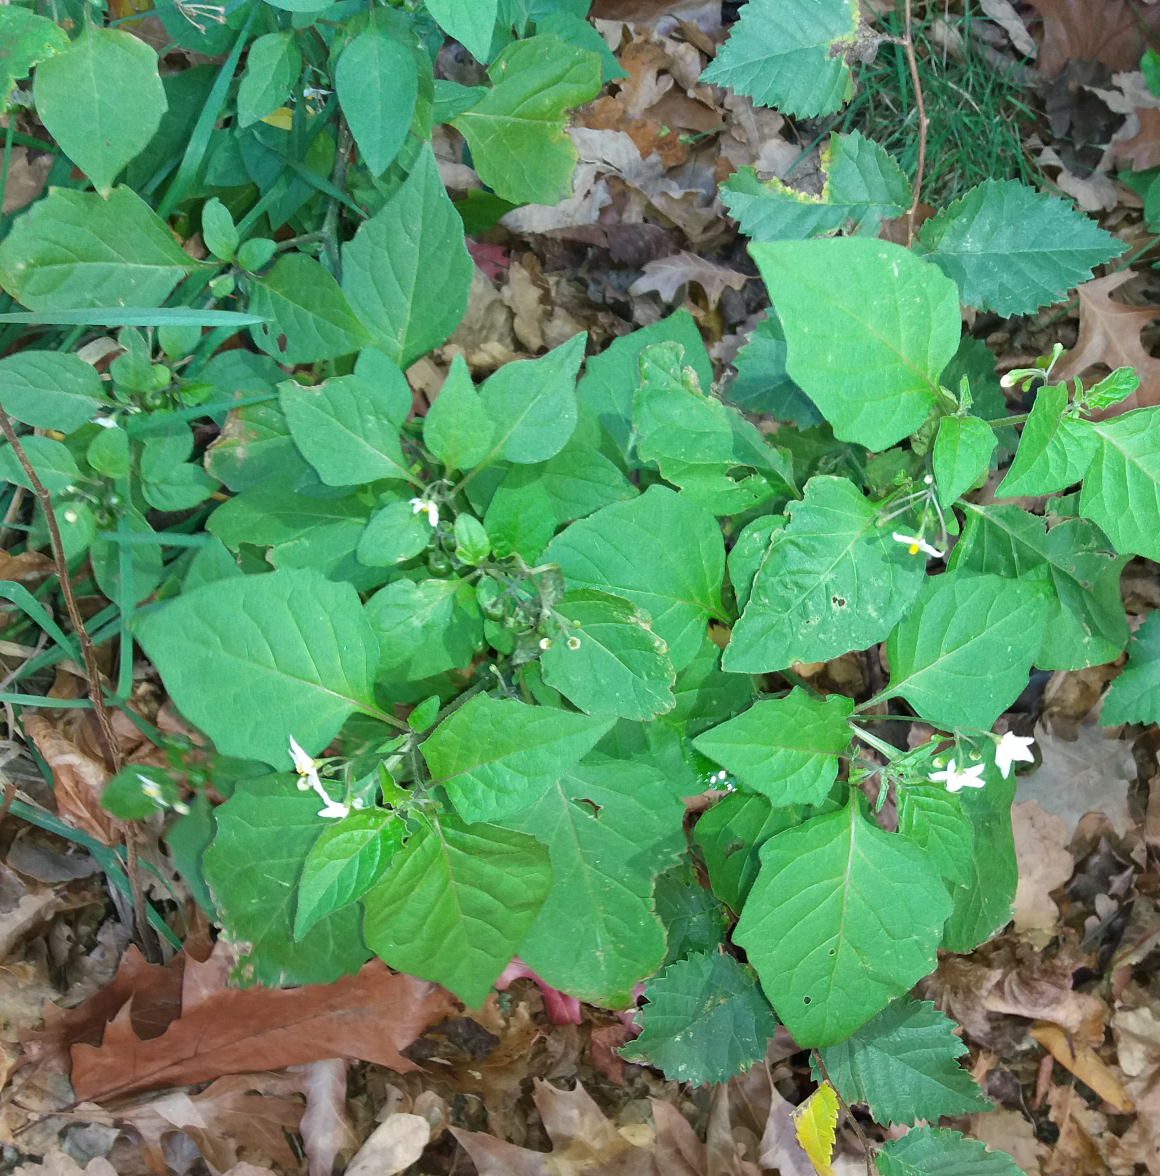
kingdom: Plantae
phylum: Tracheophyta
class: Magnoliopsida
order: Solanales
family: Solanaceae
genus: Solanum
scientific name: Solanum nigrum
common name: Black nightshade
